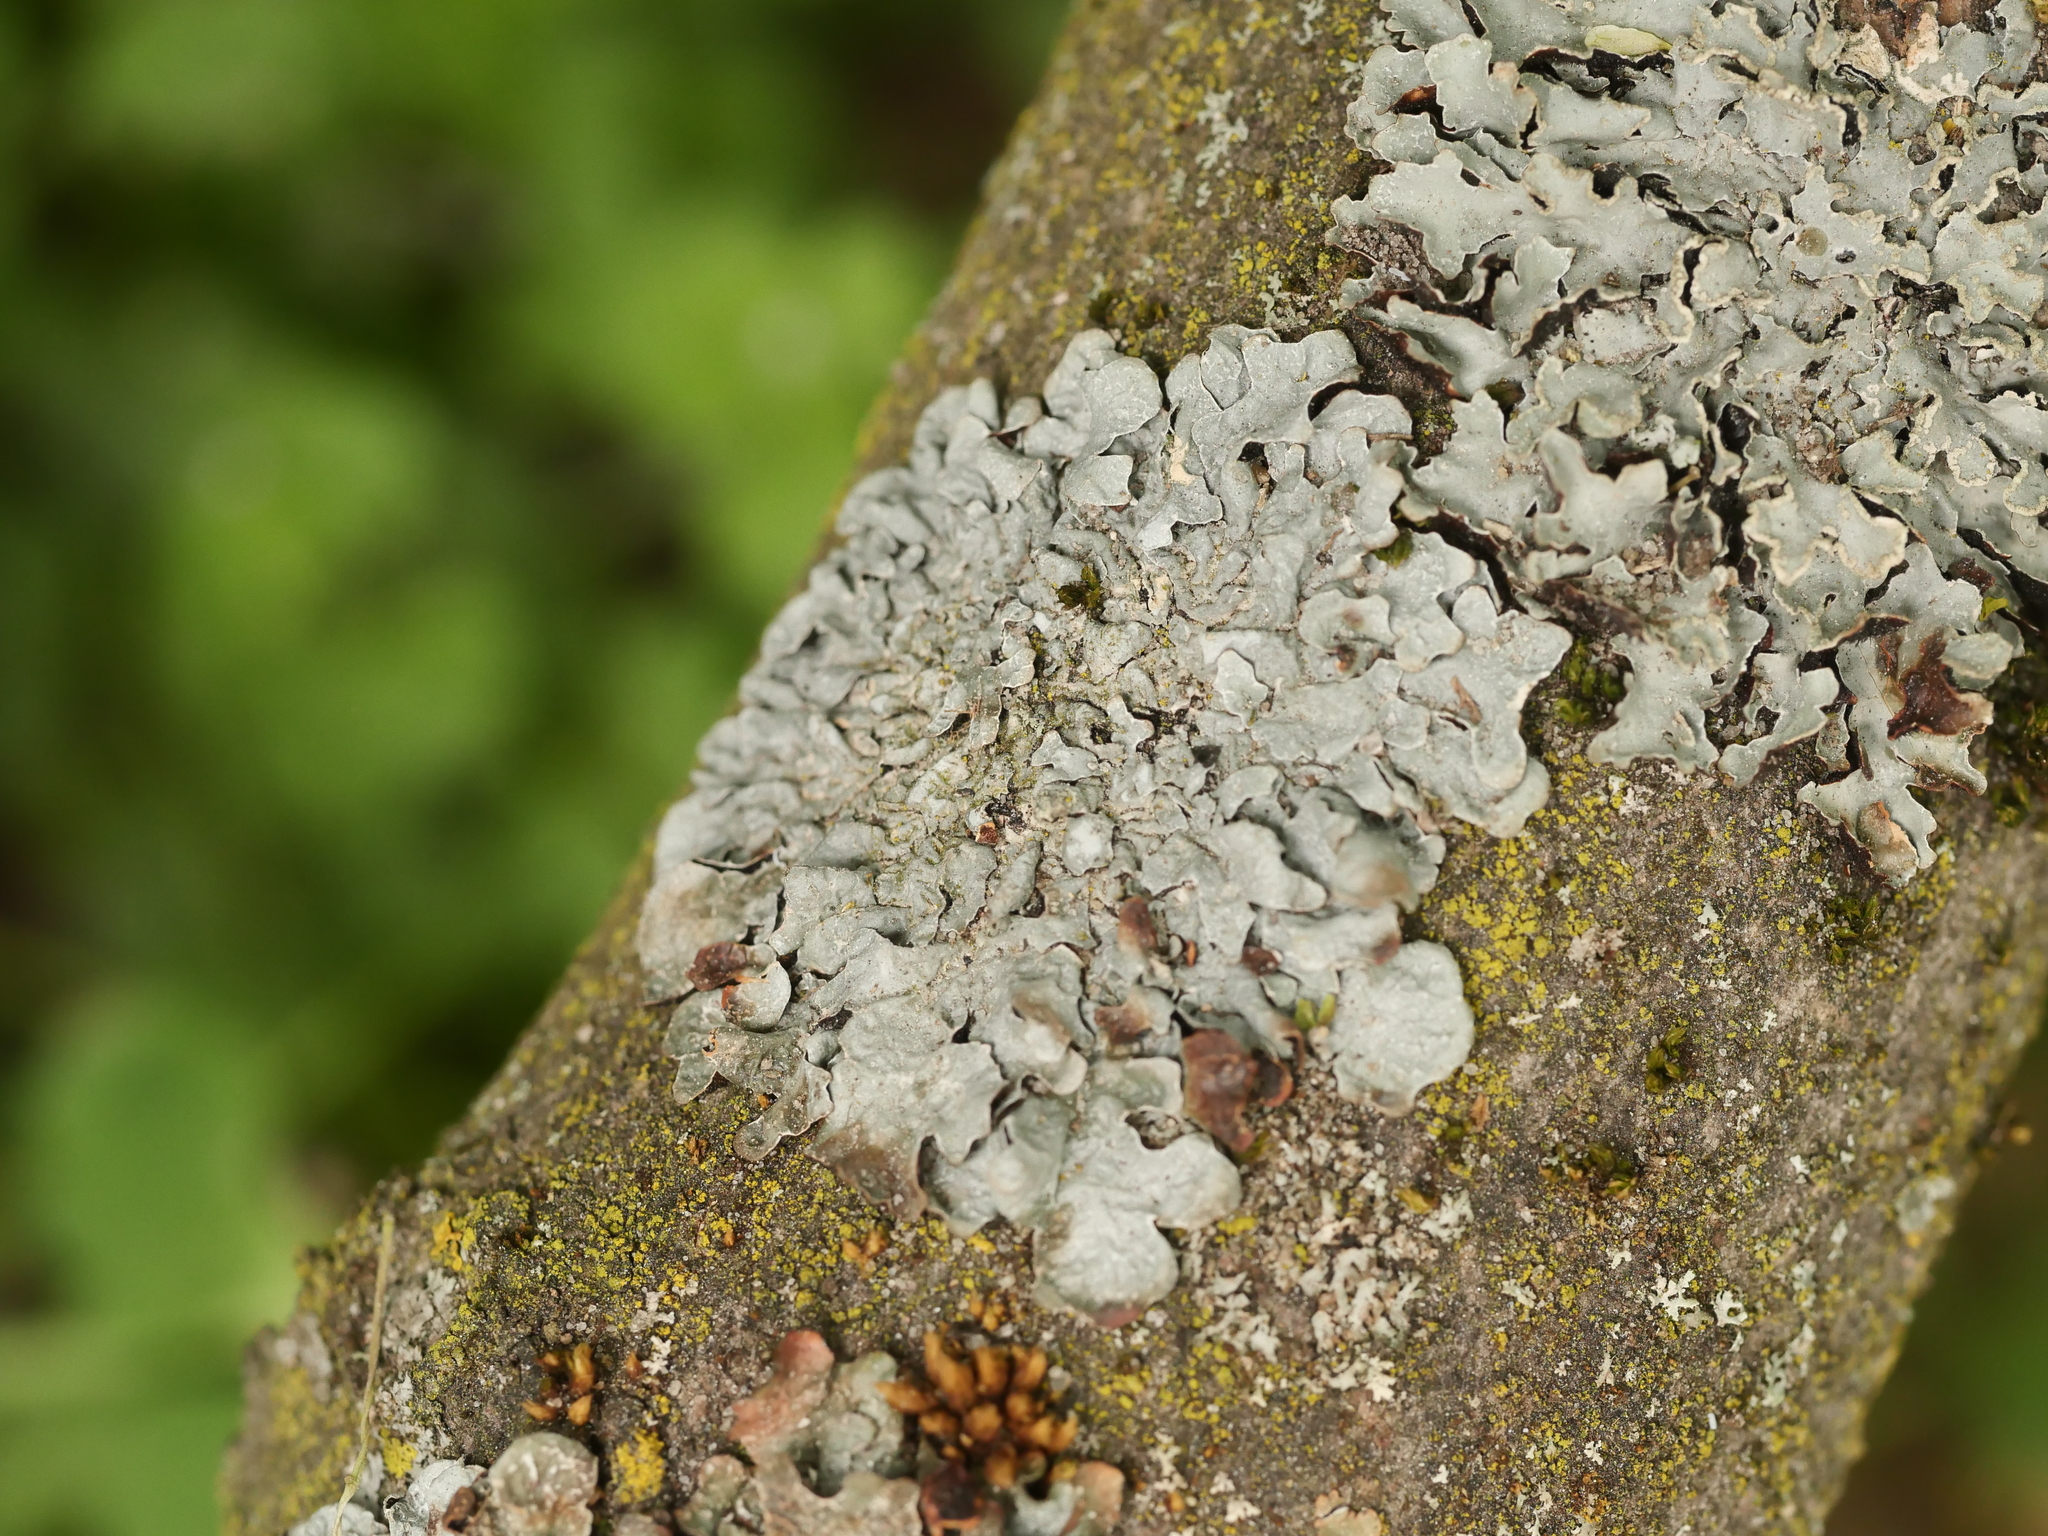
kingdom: Fungi
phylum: Ascomycota
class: Lecanoromycetes
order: Lecanorales
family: Parmeliaceae
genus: Parmelia
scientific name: Parmelia sulcata
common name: Netted shield lichen
